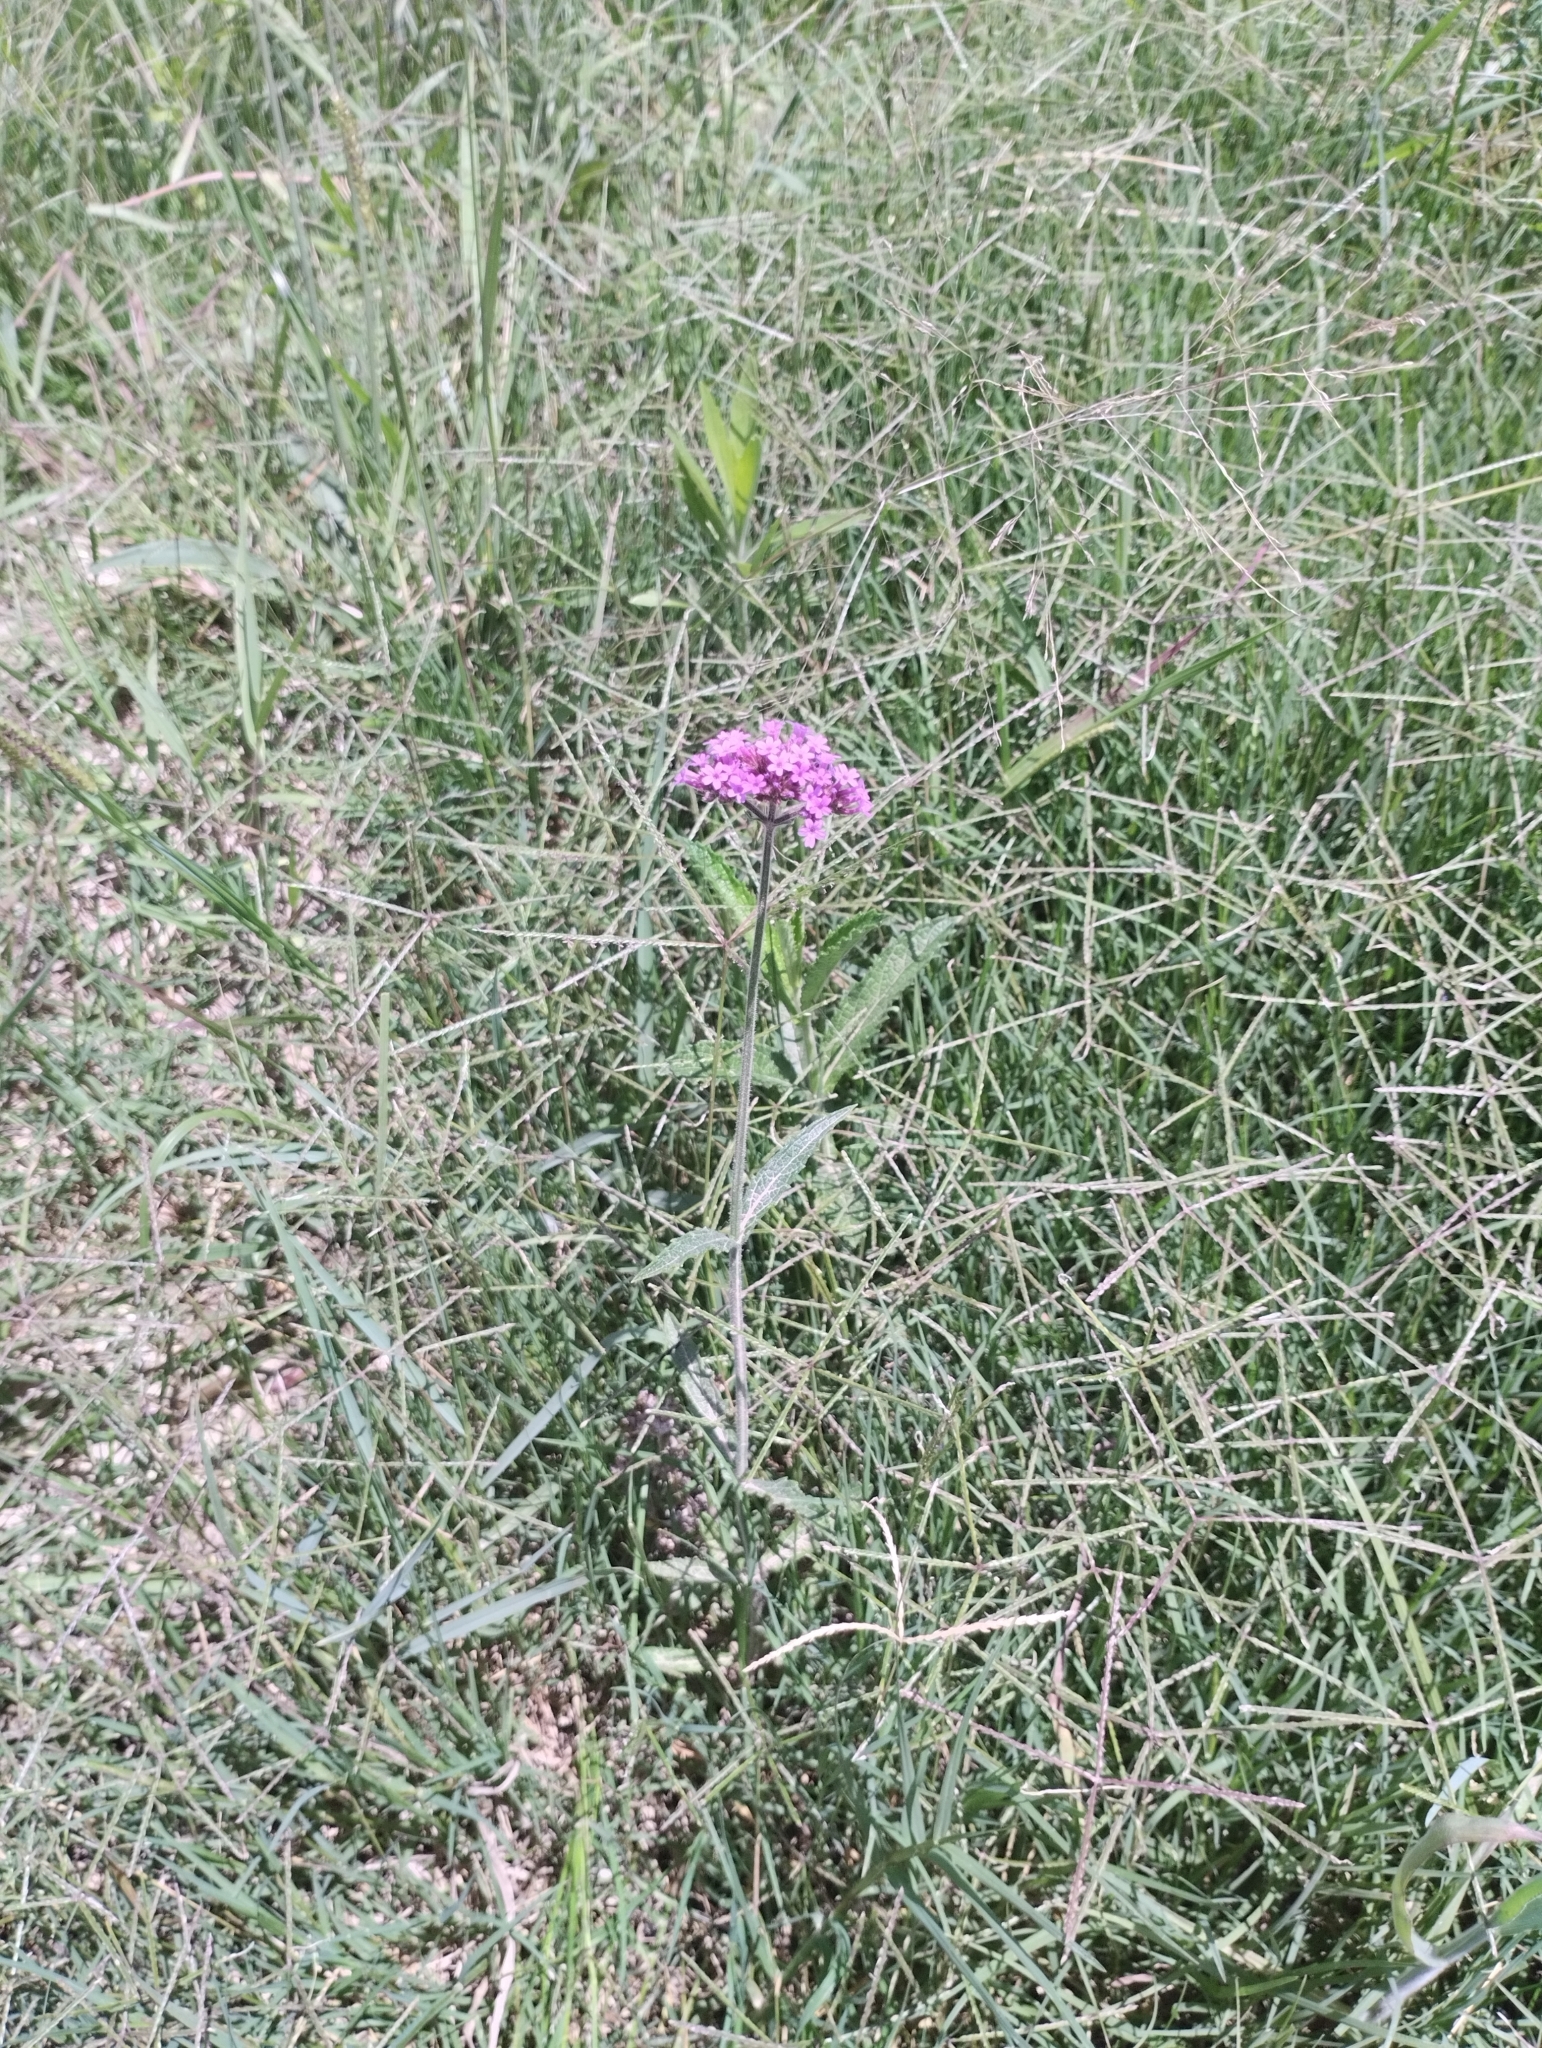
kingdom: Plantae
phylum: Tracheophyta
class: Magnoliopsida
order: Lamiales
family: Verbenaceae
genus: Verbena
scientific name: Verbena rigida
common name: Slender vervain
